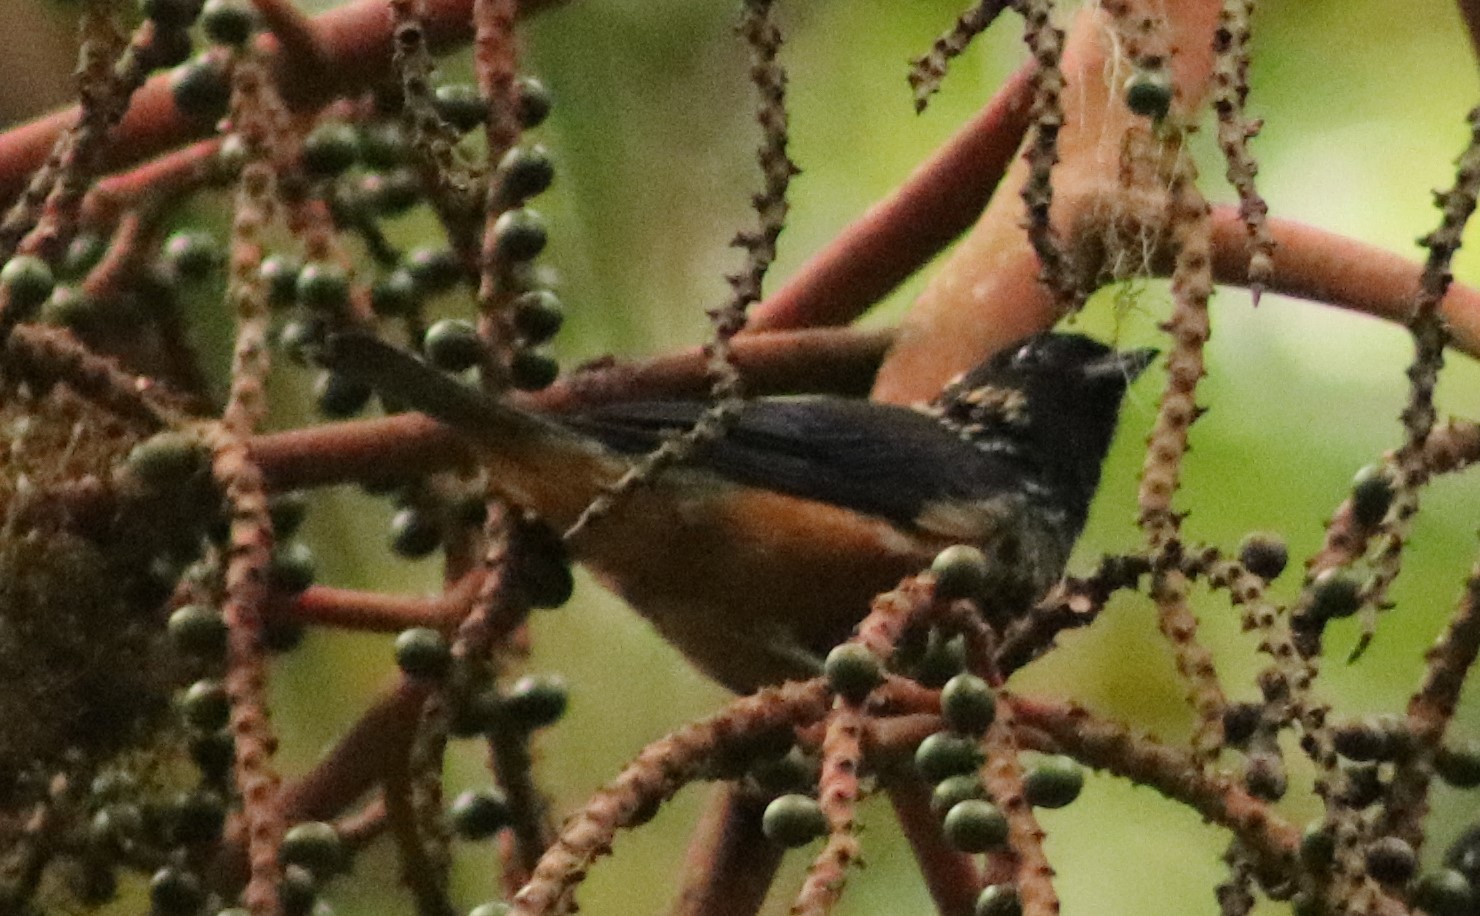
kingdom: Animalia
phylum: Chordata
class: Aves
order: Passeriformes
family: Thraupidae
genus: Tangara
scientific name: Tangara dowii
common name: Spangle-cheeked tanager
